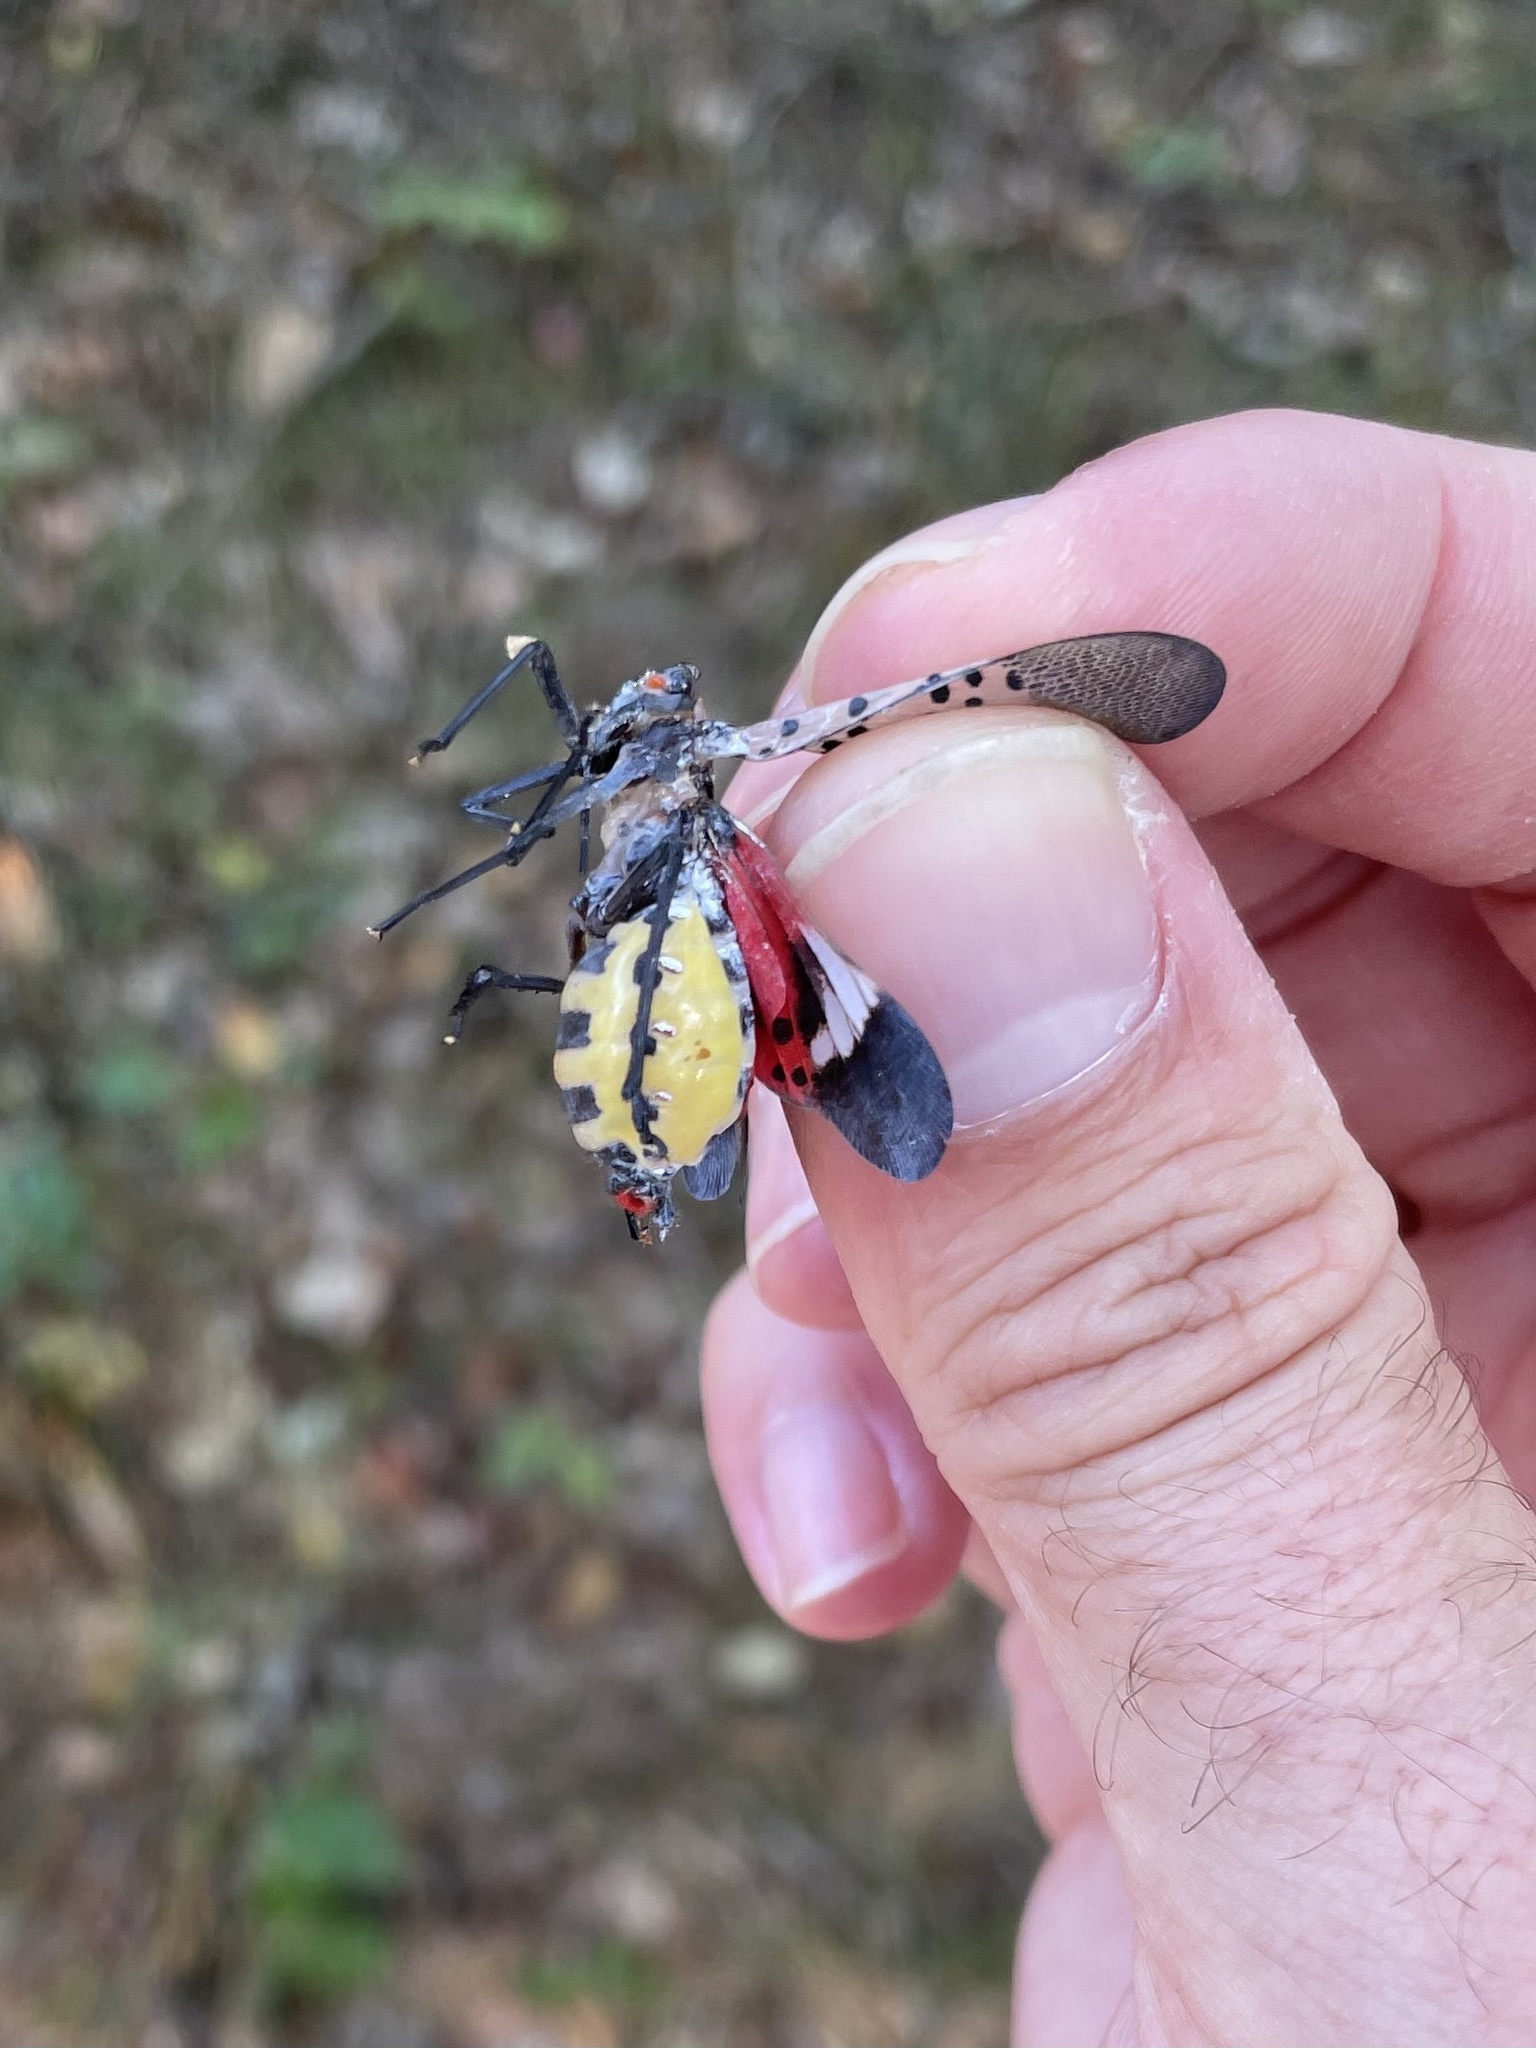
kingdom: Animalia
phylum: Arthropoda
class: Insecta
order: Hemiptera
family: Fulgoridae
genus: Lycorma
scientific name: Lycorma delicatula
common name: Spotted lanternfly
